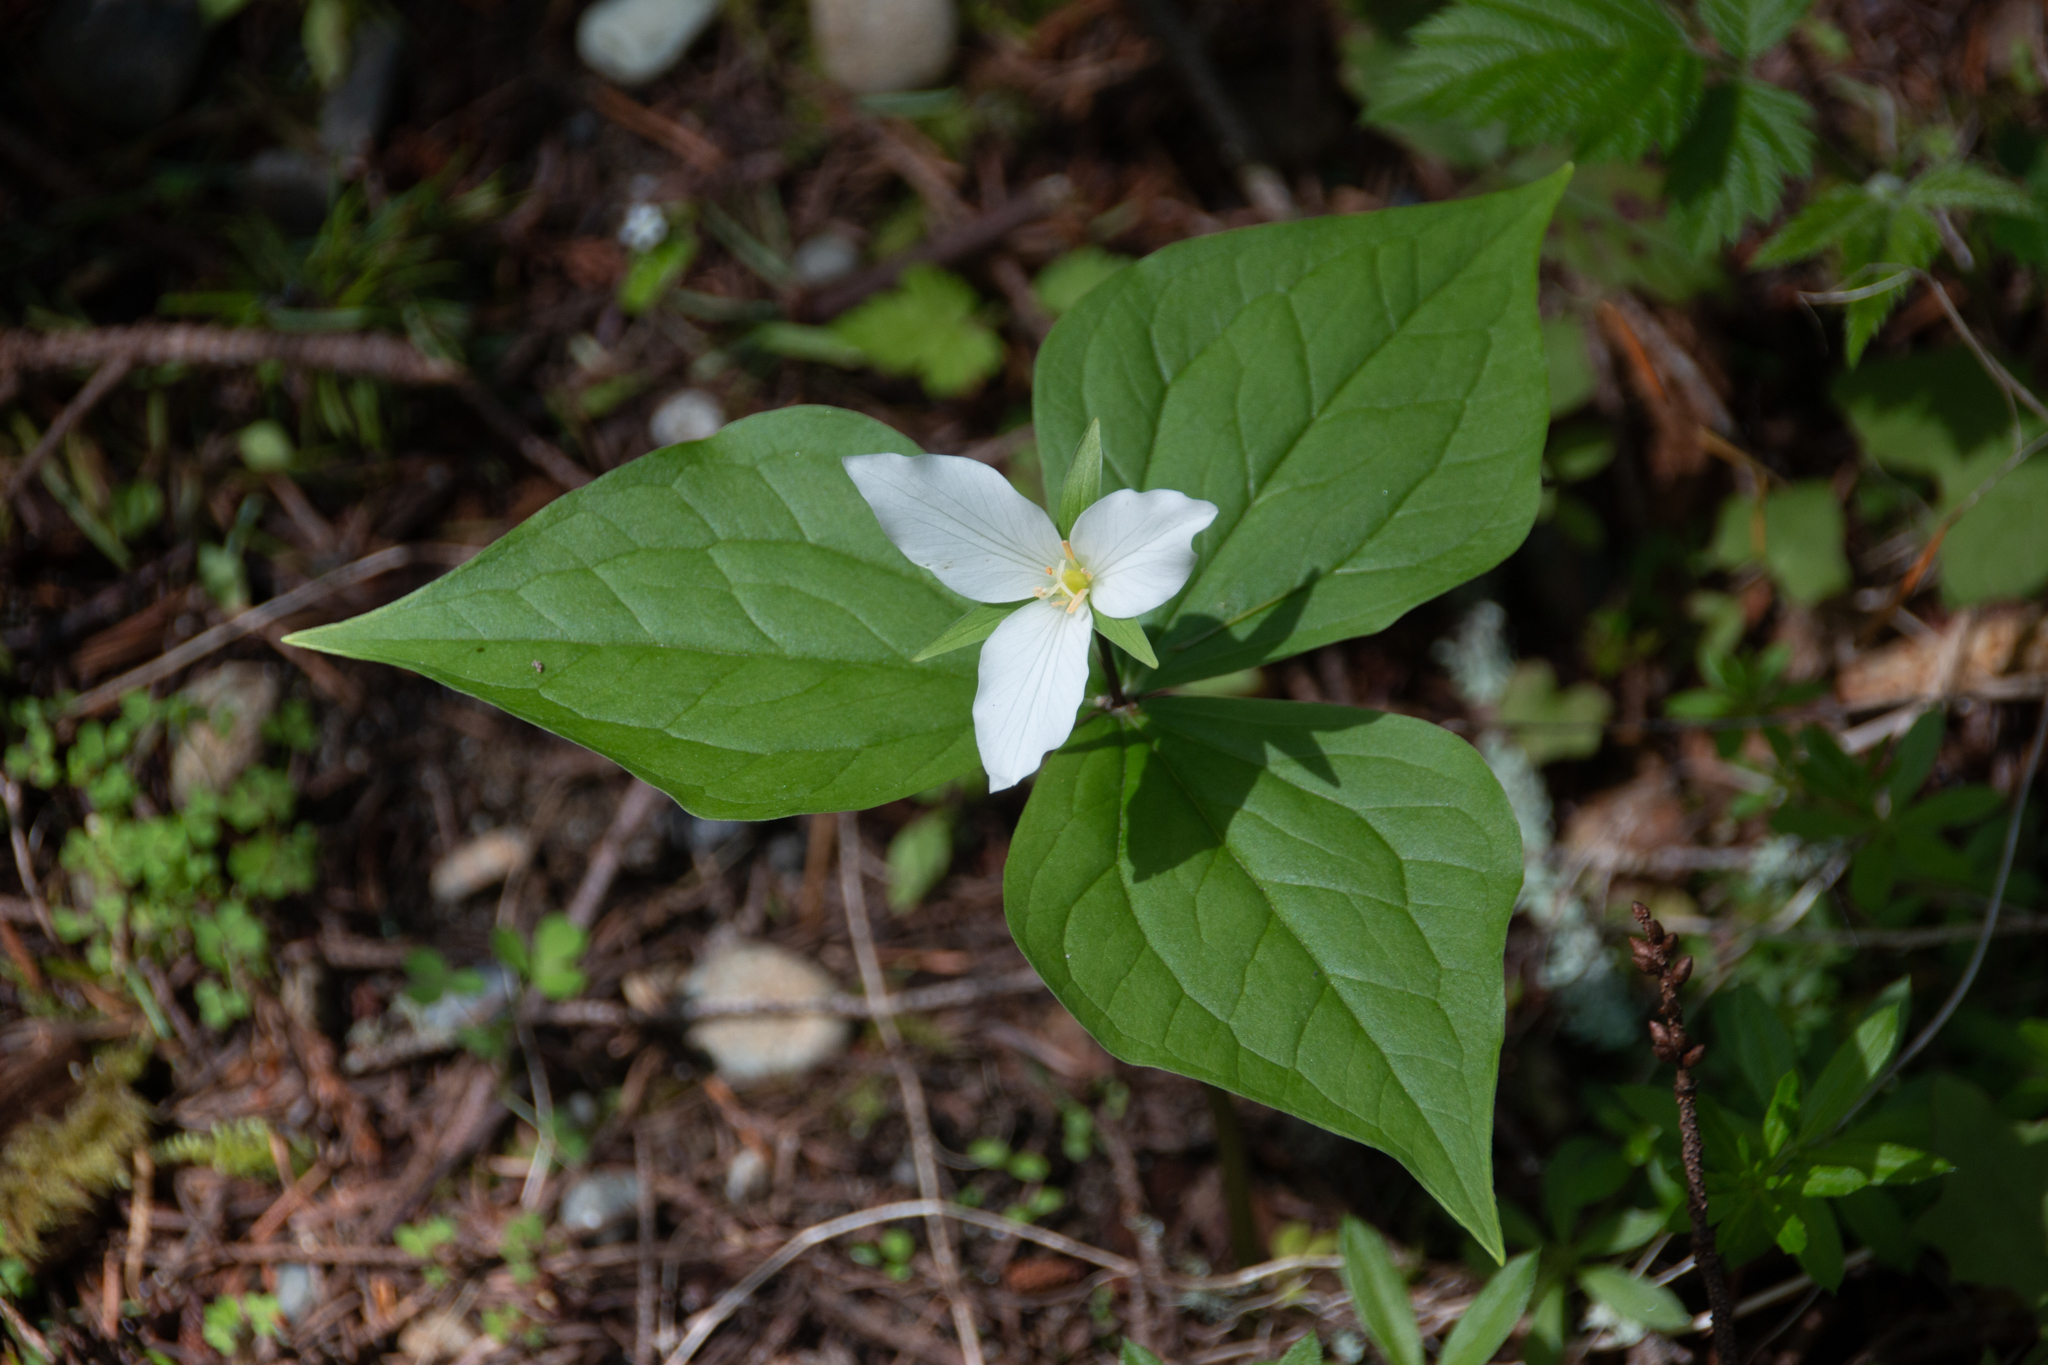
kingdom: Plantae
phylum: Tracheophyta
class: Liliopsida
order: Liliales
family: Melanthiaceae
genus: Trillium
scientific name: Trillium ovatum
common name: Pacific trillium
